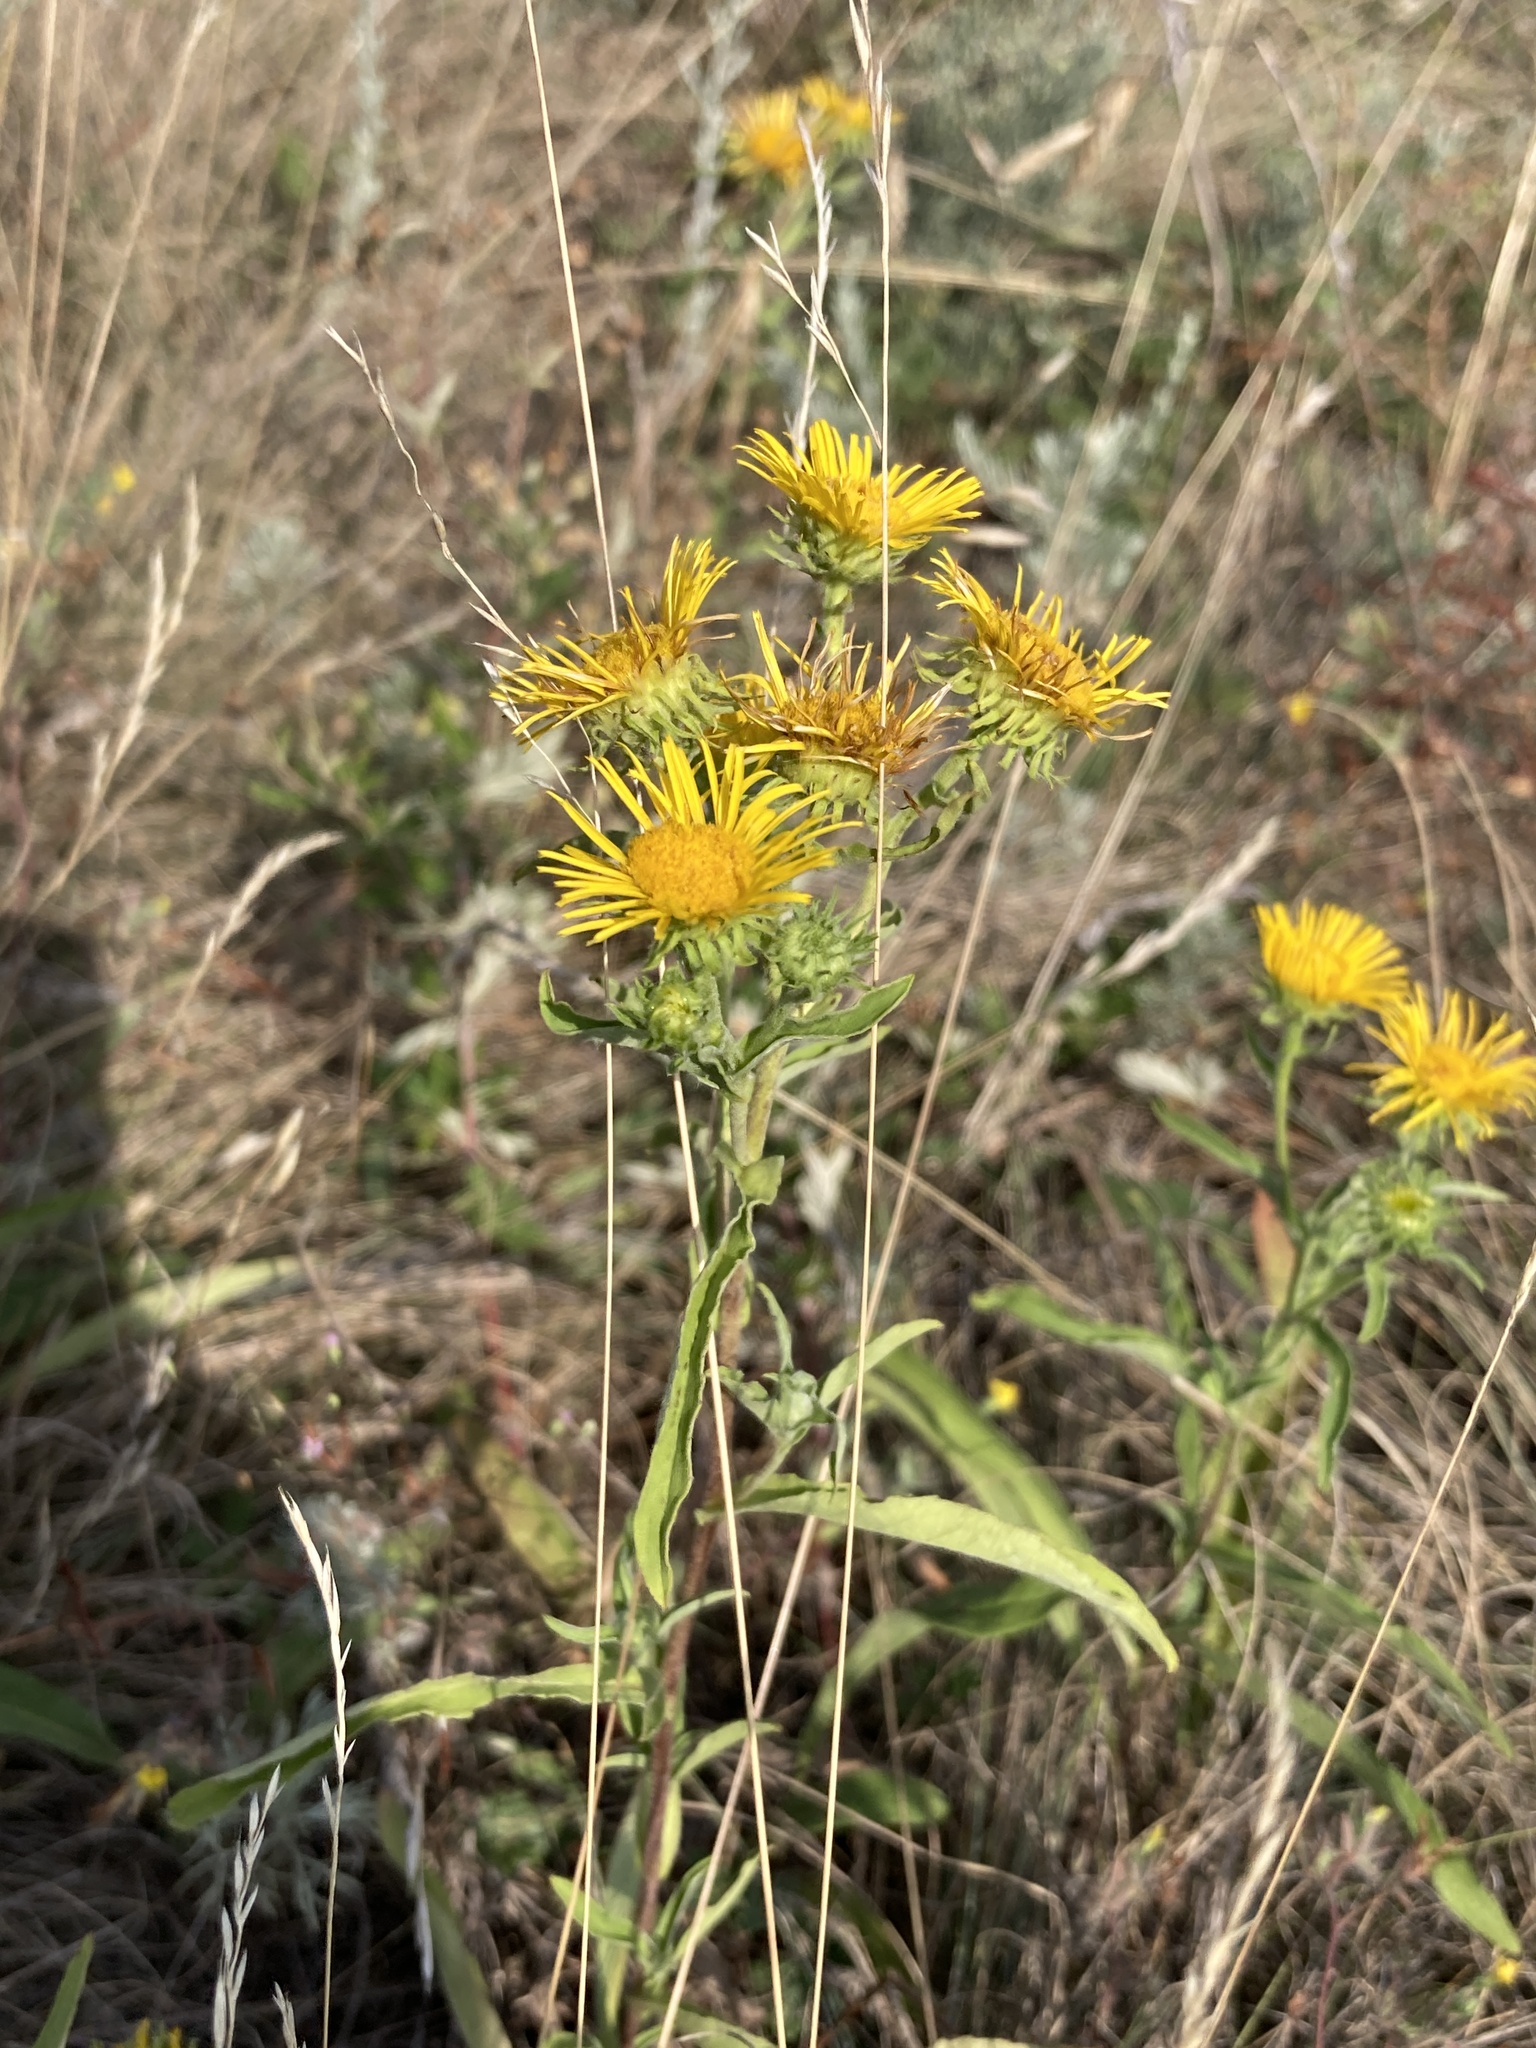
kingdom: Plantae
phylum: Tracheophyta
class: Magnoliopsida
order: Asterales
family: Asteraceae
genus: Pentanema
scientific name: Pentanema britannicum
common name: British elecampane
